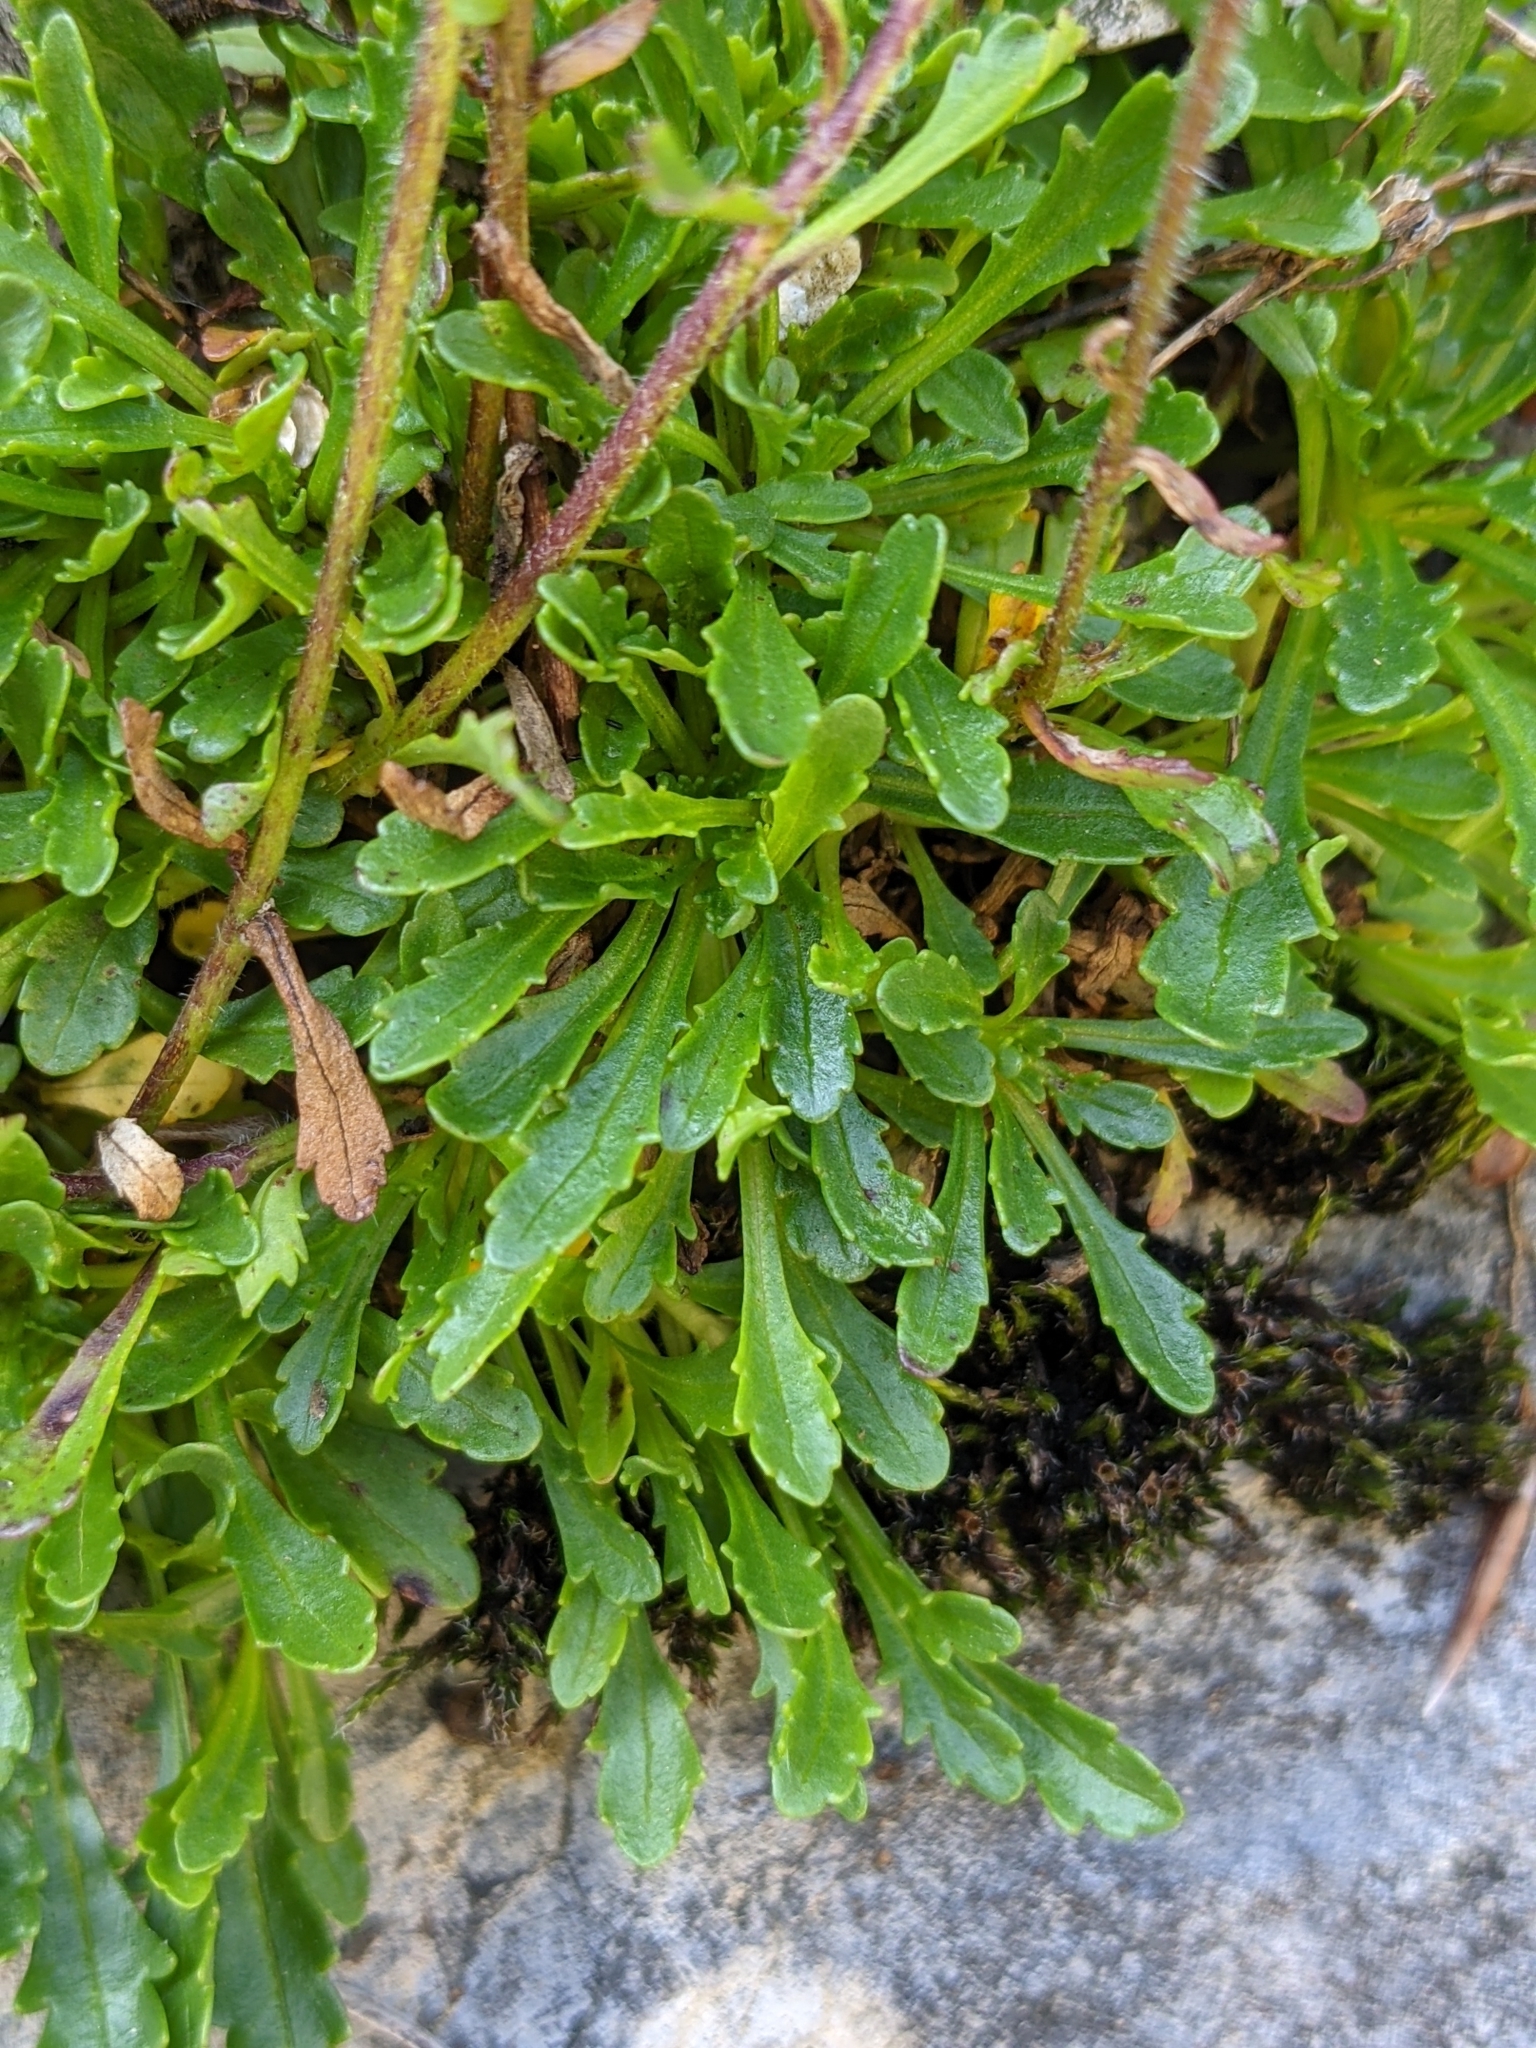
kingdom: Plantae
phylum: Tracheophyta
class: Magnoliopsida
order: Lamiales
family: Plantaginaceae
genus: Erinus
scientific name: Erinus alpinus
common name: Fairy foxglove
